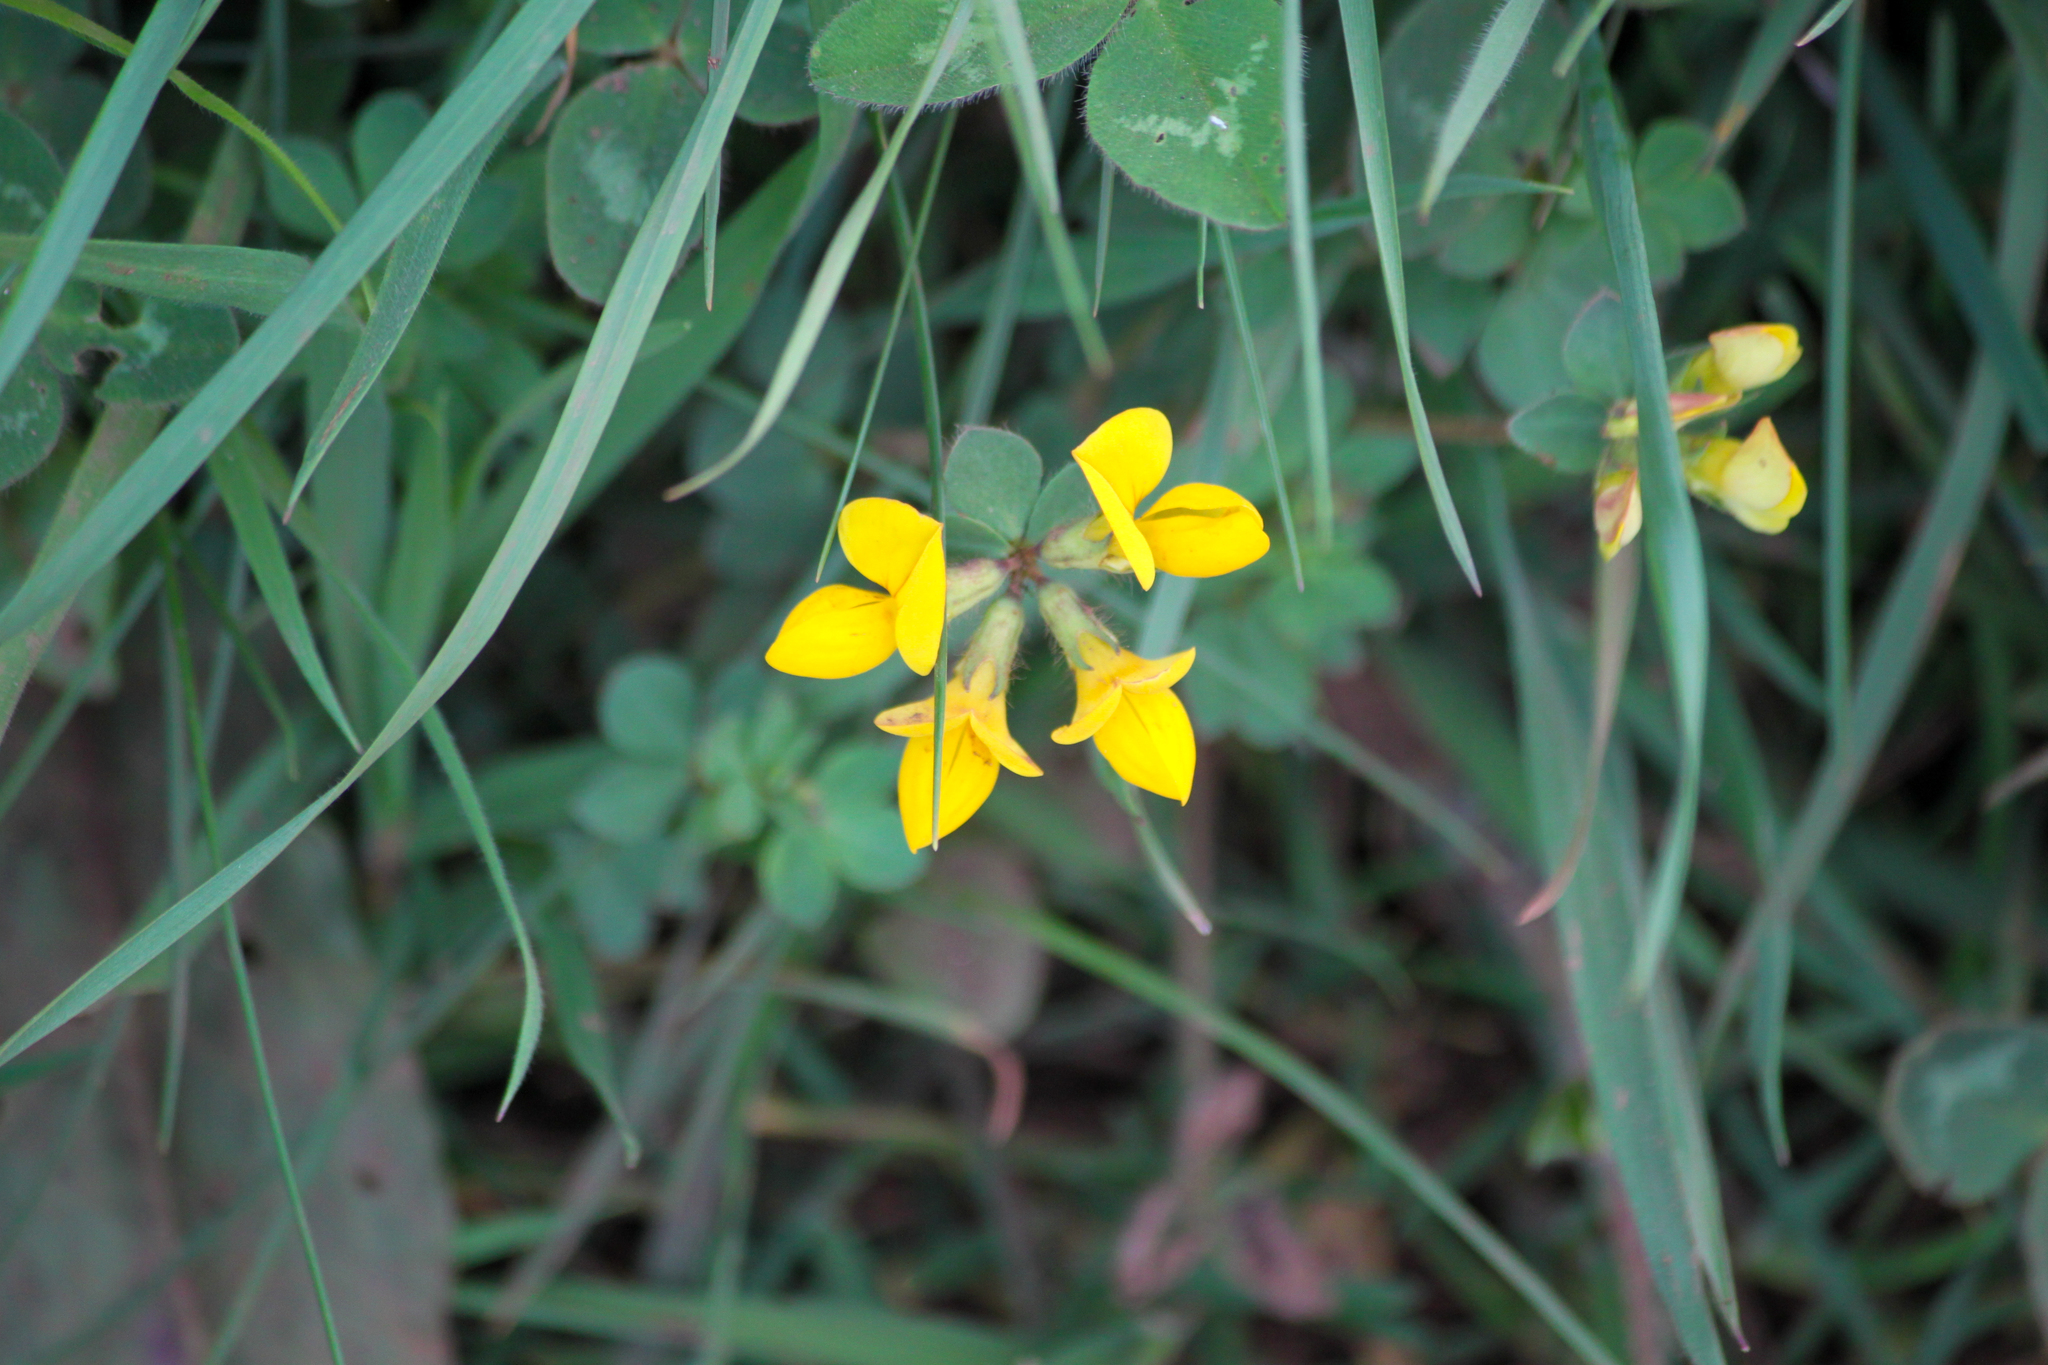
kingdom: Plantae
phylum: Tracheophyta
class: Magnoliopsida
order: Fabales
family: Fabaceae
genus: Lotus
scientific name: Lotus corniculatus
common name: Common bird's-foot-trefoil
